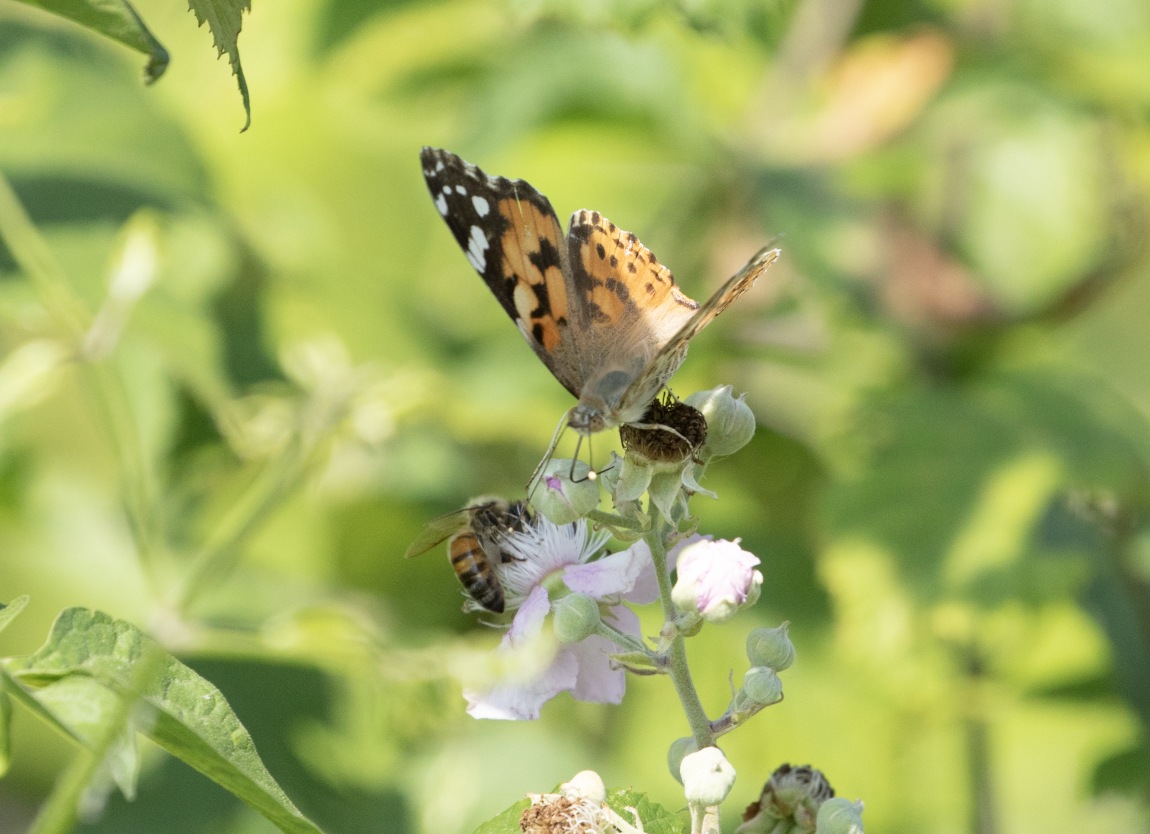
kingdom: Animalia
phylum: Arthropoda
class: Insecta
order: Lepidoptera
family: Nymphalidae
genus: Vanessa
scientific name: Vanessa cardui
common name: Painted lady
